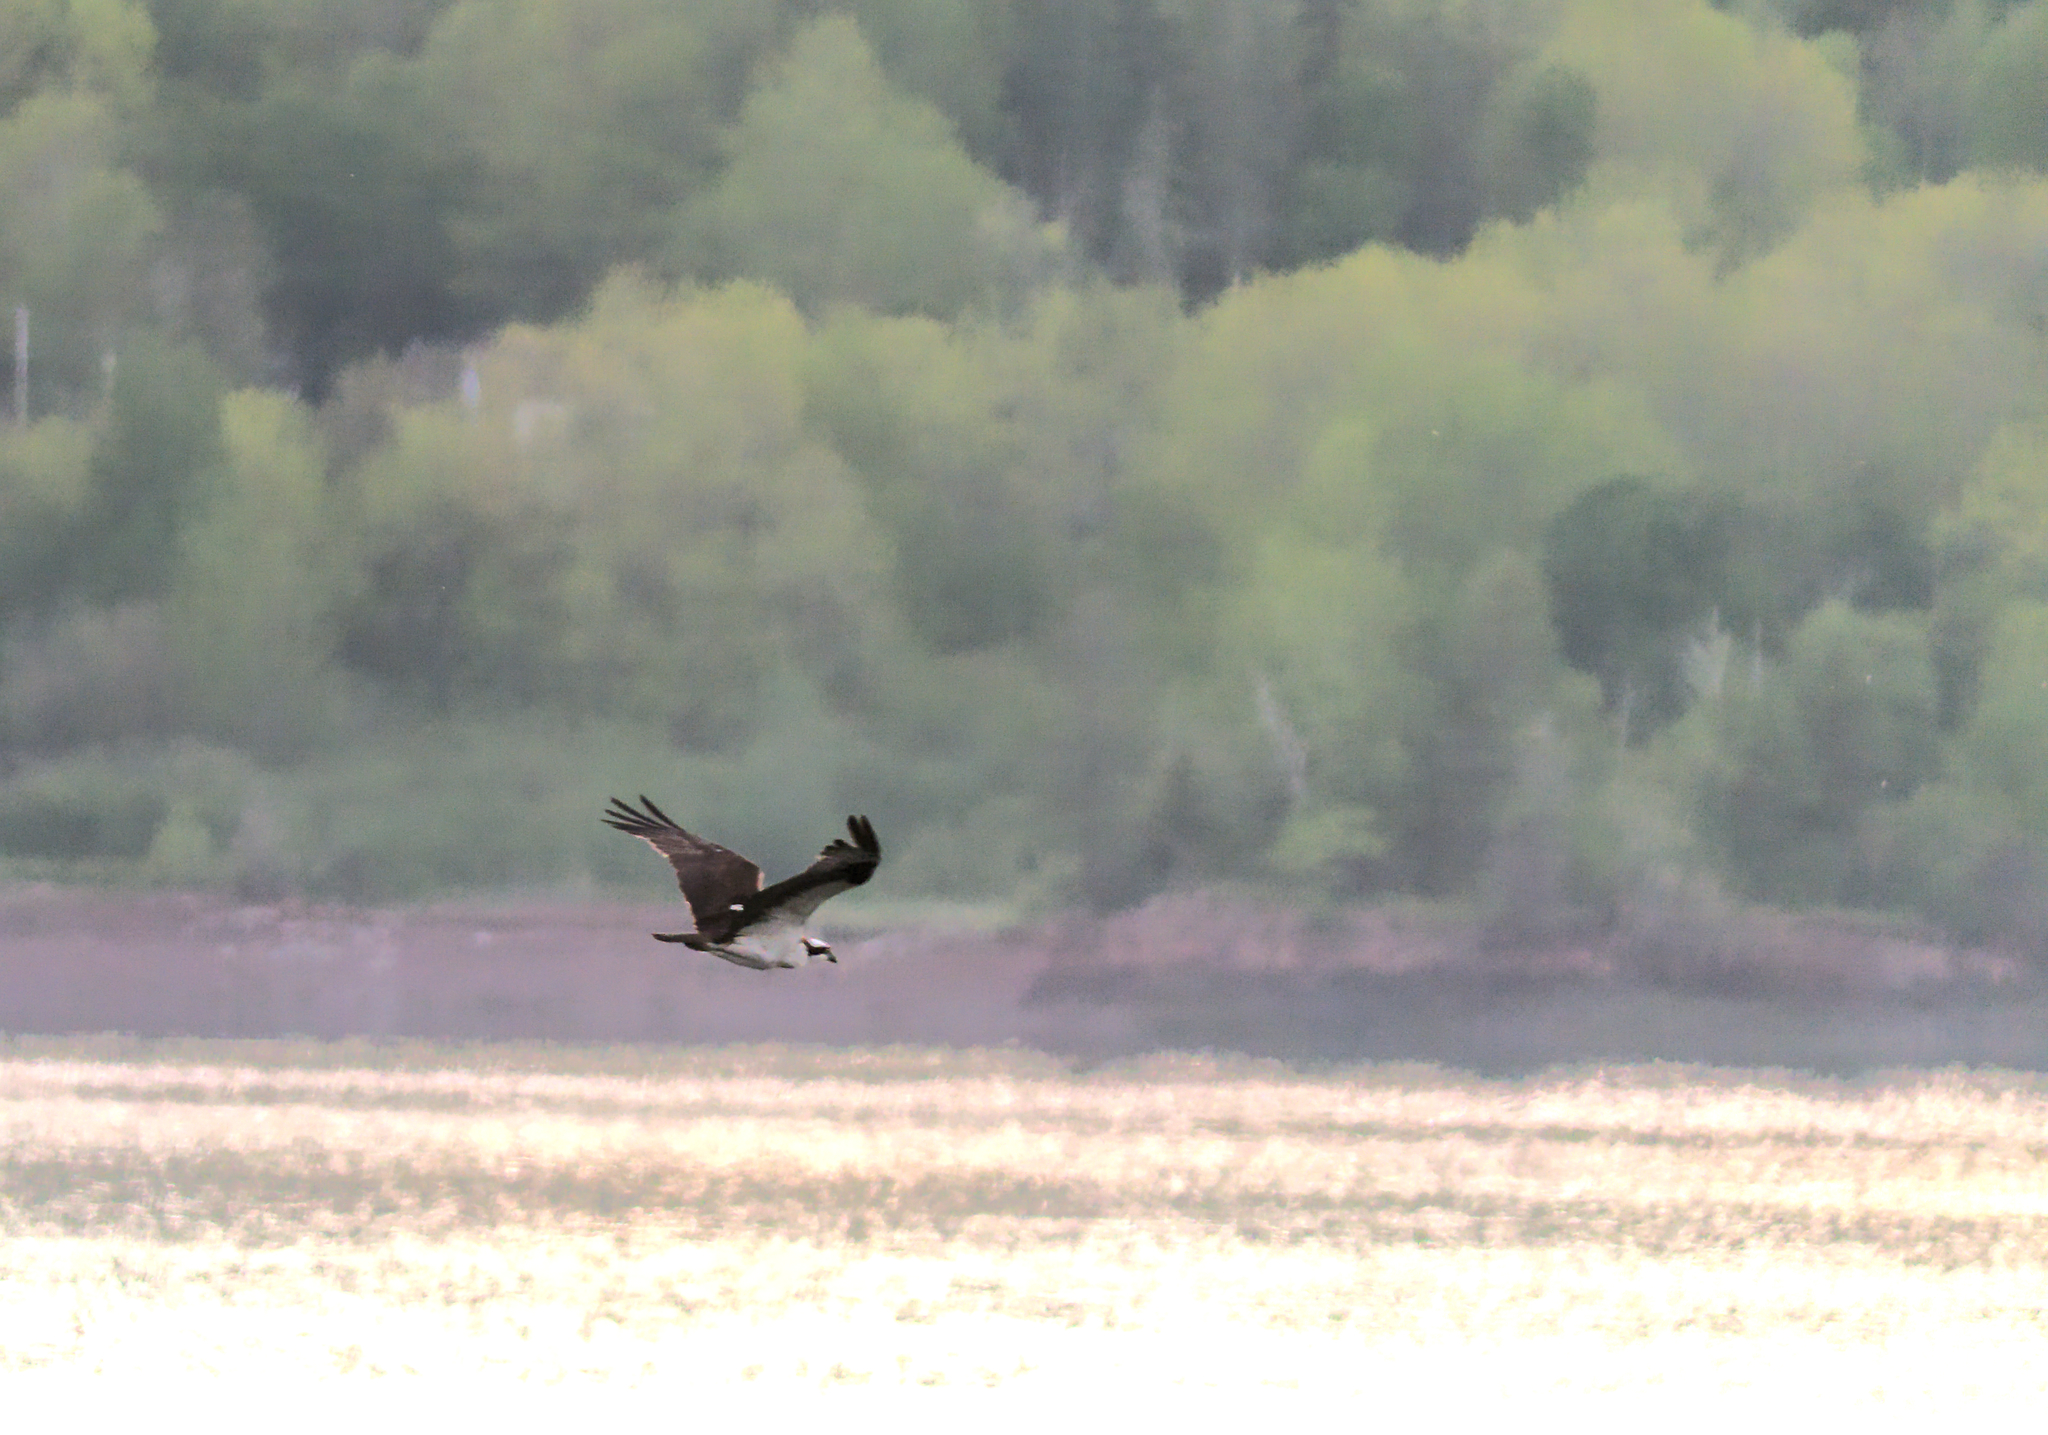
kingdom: Animalia
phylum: Chordata
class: Aves
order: Accipitriformes
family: Pandionidae
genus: Pandion
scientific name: Pandion haliaetus
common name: Osprey
